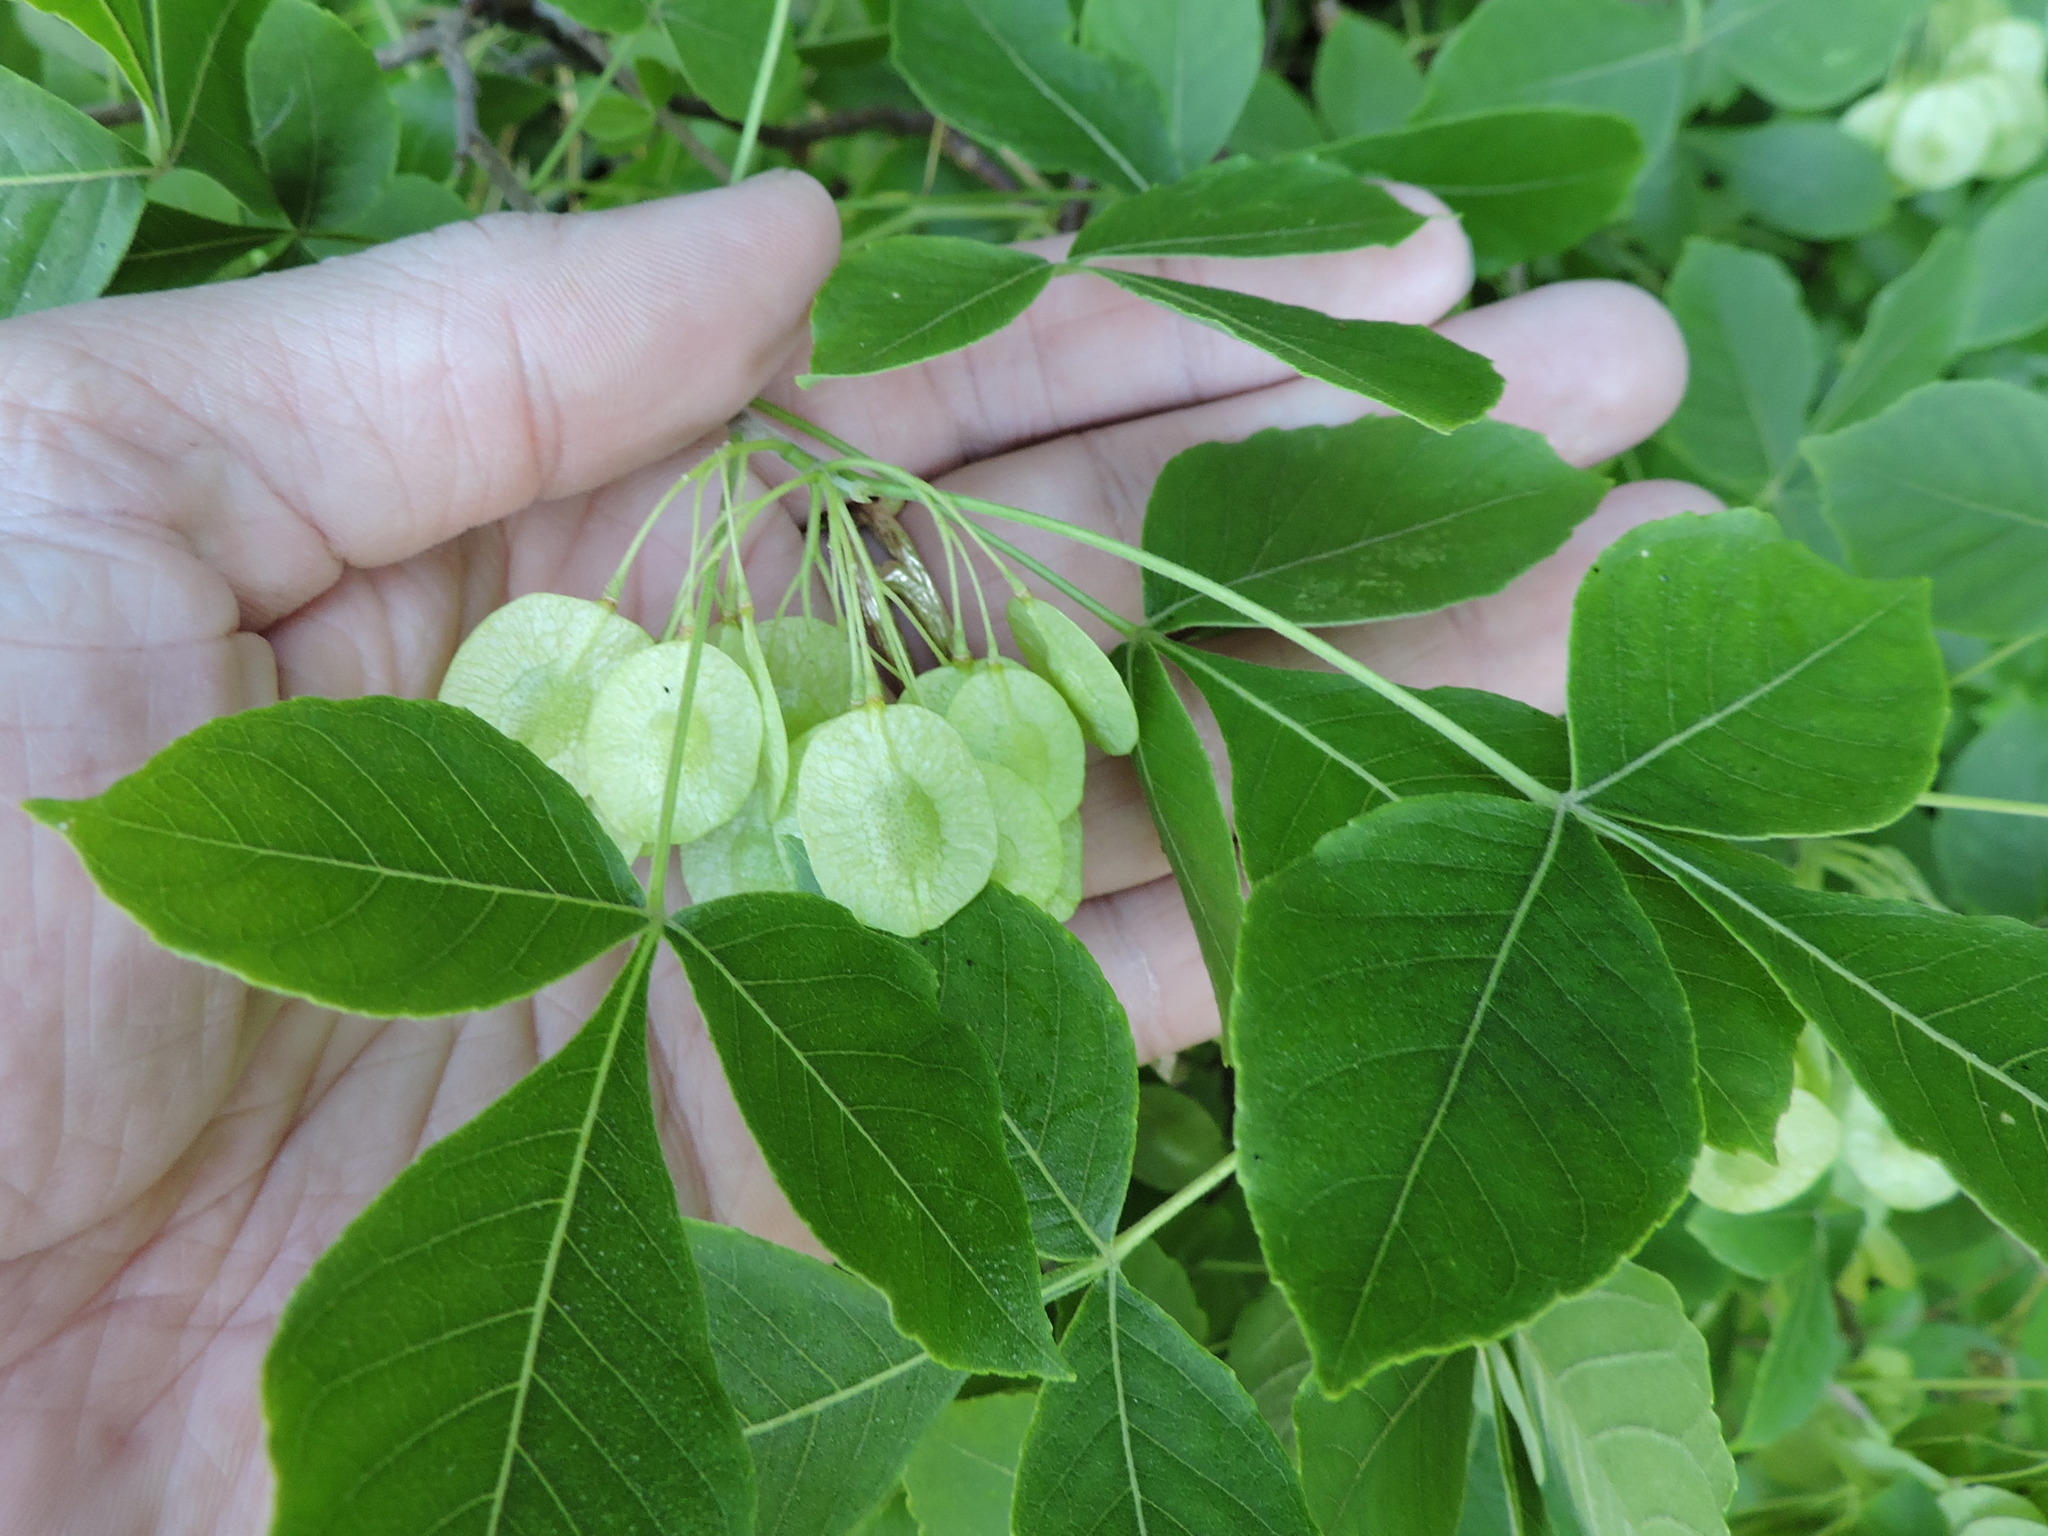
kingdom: Plantae
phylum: Tracheophyta
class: Magnoliopsida
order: Sapindales
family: Rutaceae
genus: Ptelea
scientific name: Ptelea trifoliata
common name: Common hop-tree
